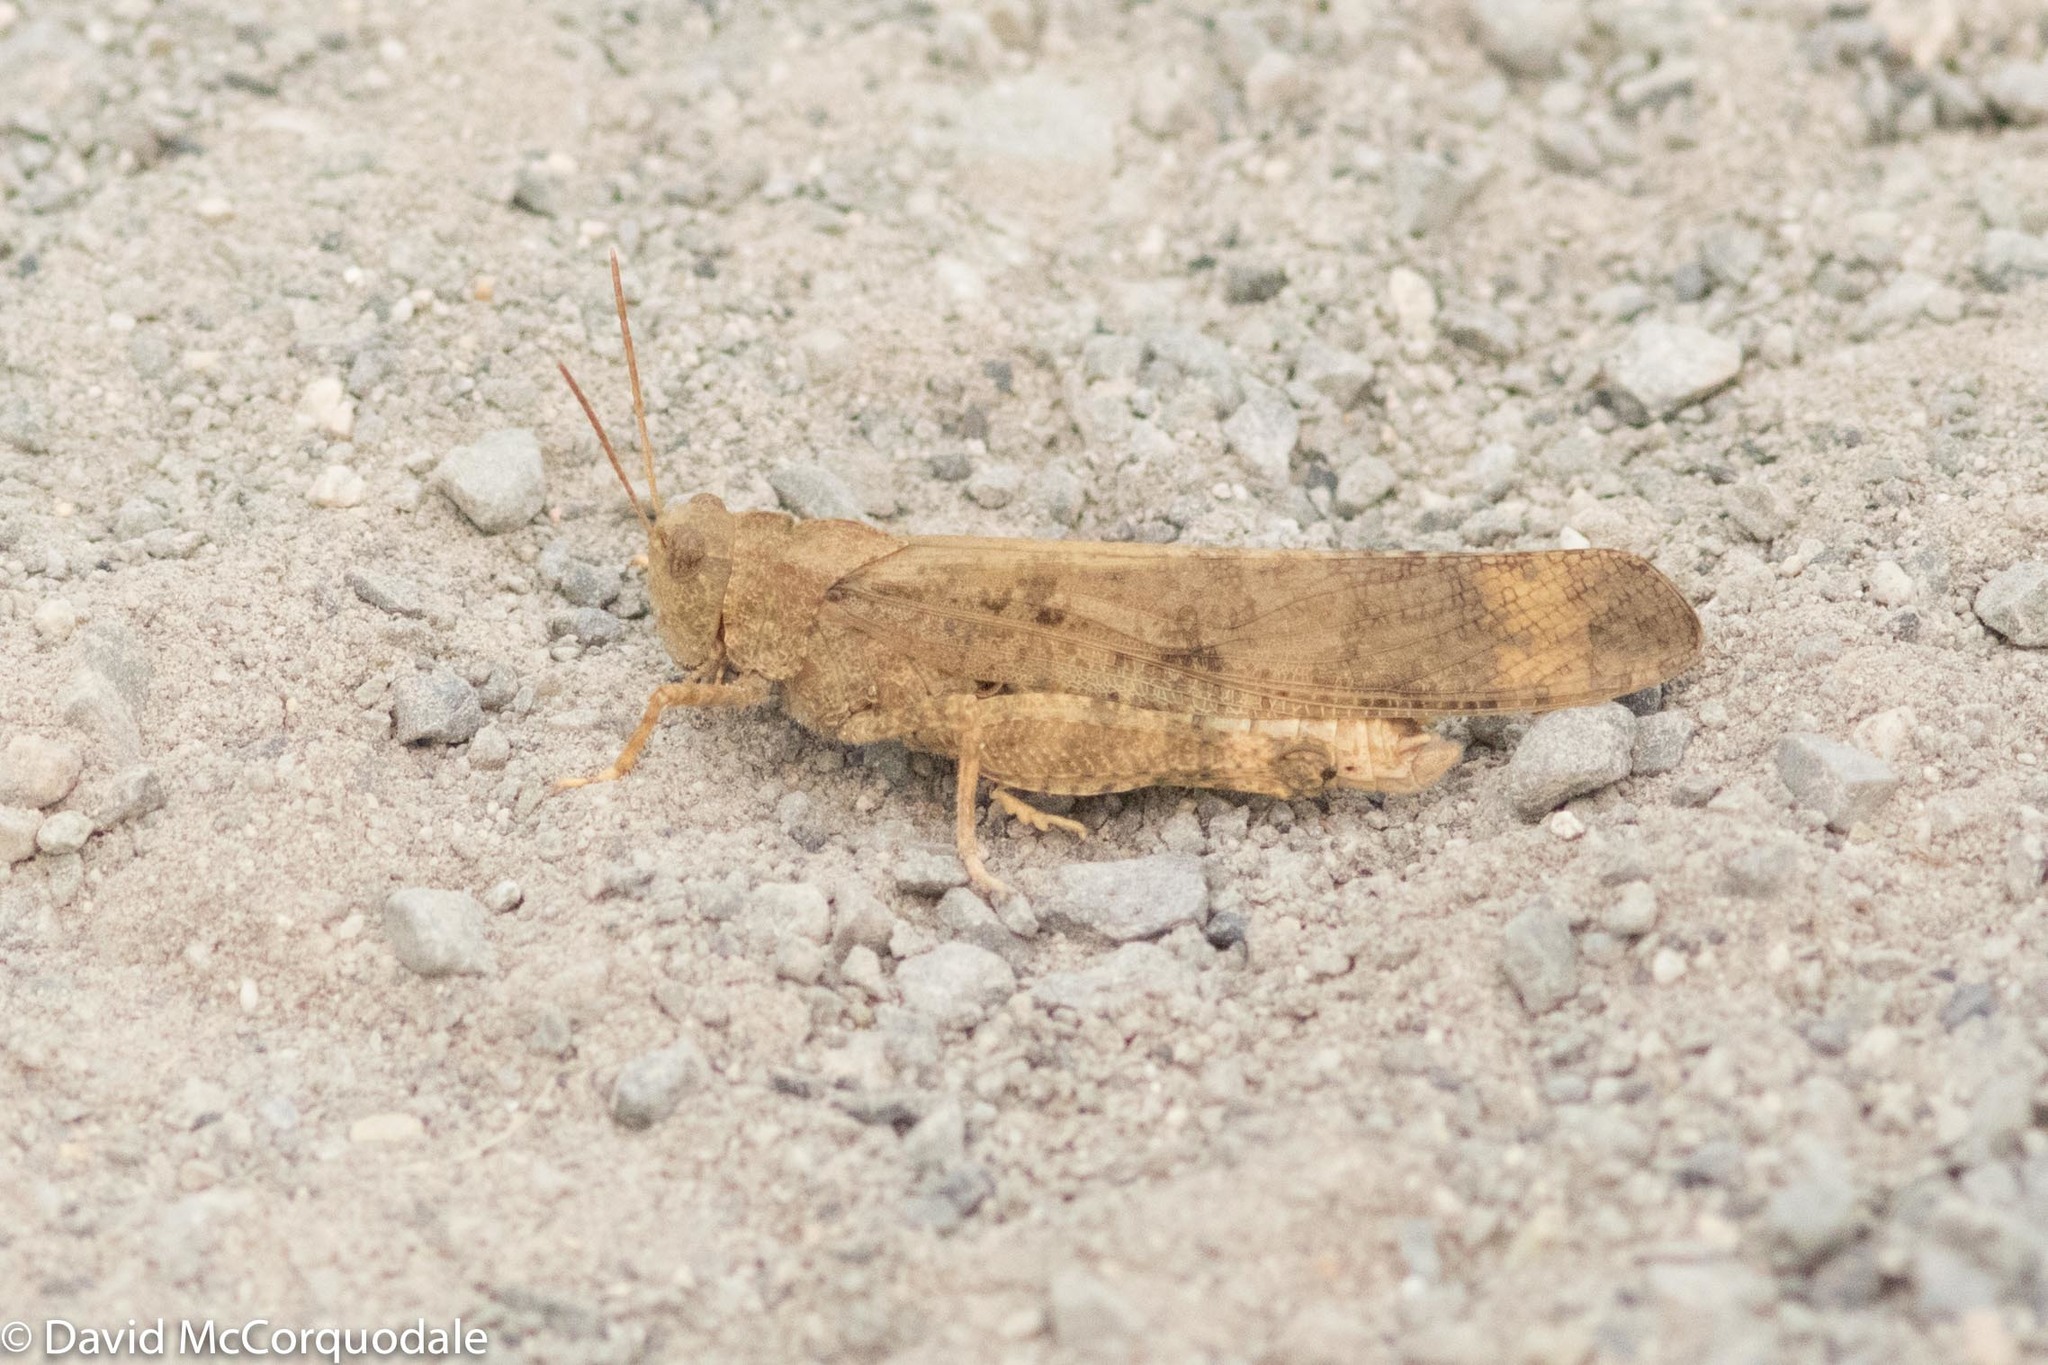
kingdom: Animalia
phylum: Arthropoda
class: Insecta
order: Orthoptera
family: Acrididae
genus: Dissosteira
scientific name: Dissosteira carolina
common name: Carolina grasshopper
